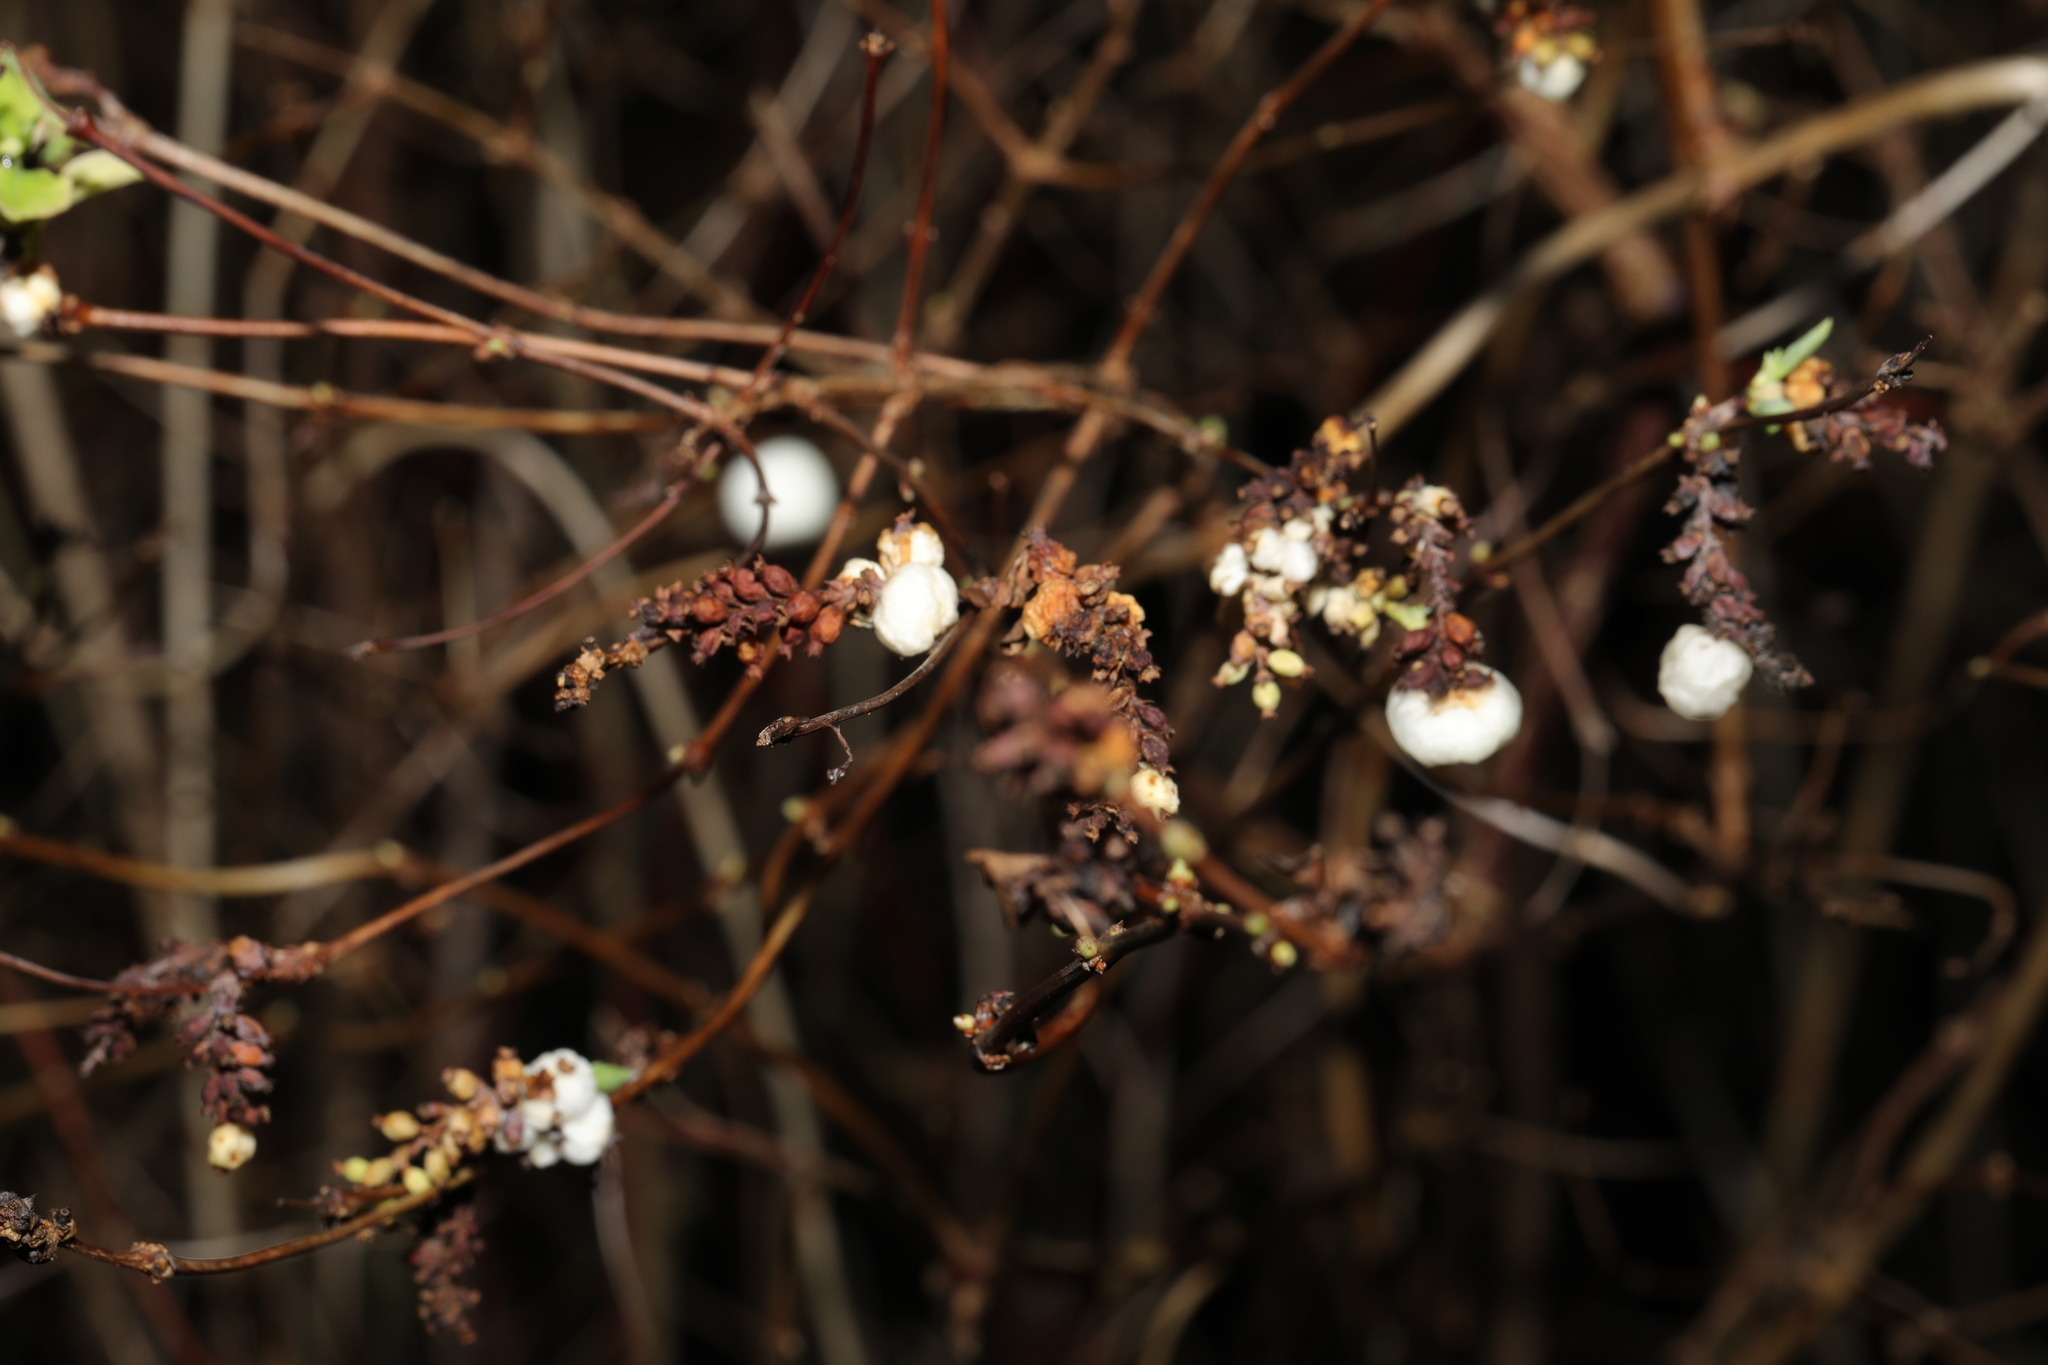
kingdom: Plantae
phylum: Tracheophyta
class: Magnoliopsida
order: Dipsacales
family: Caprifoliaceae
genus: Symphoricarpos
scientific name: Symphoricarpos albus
